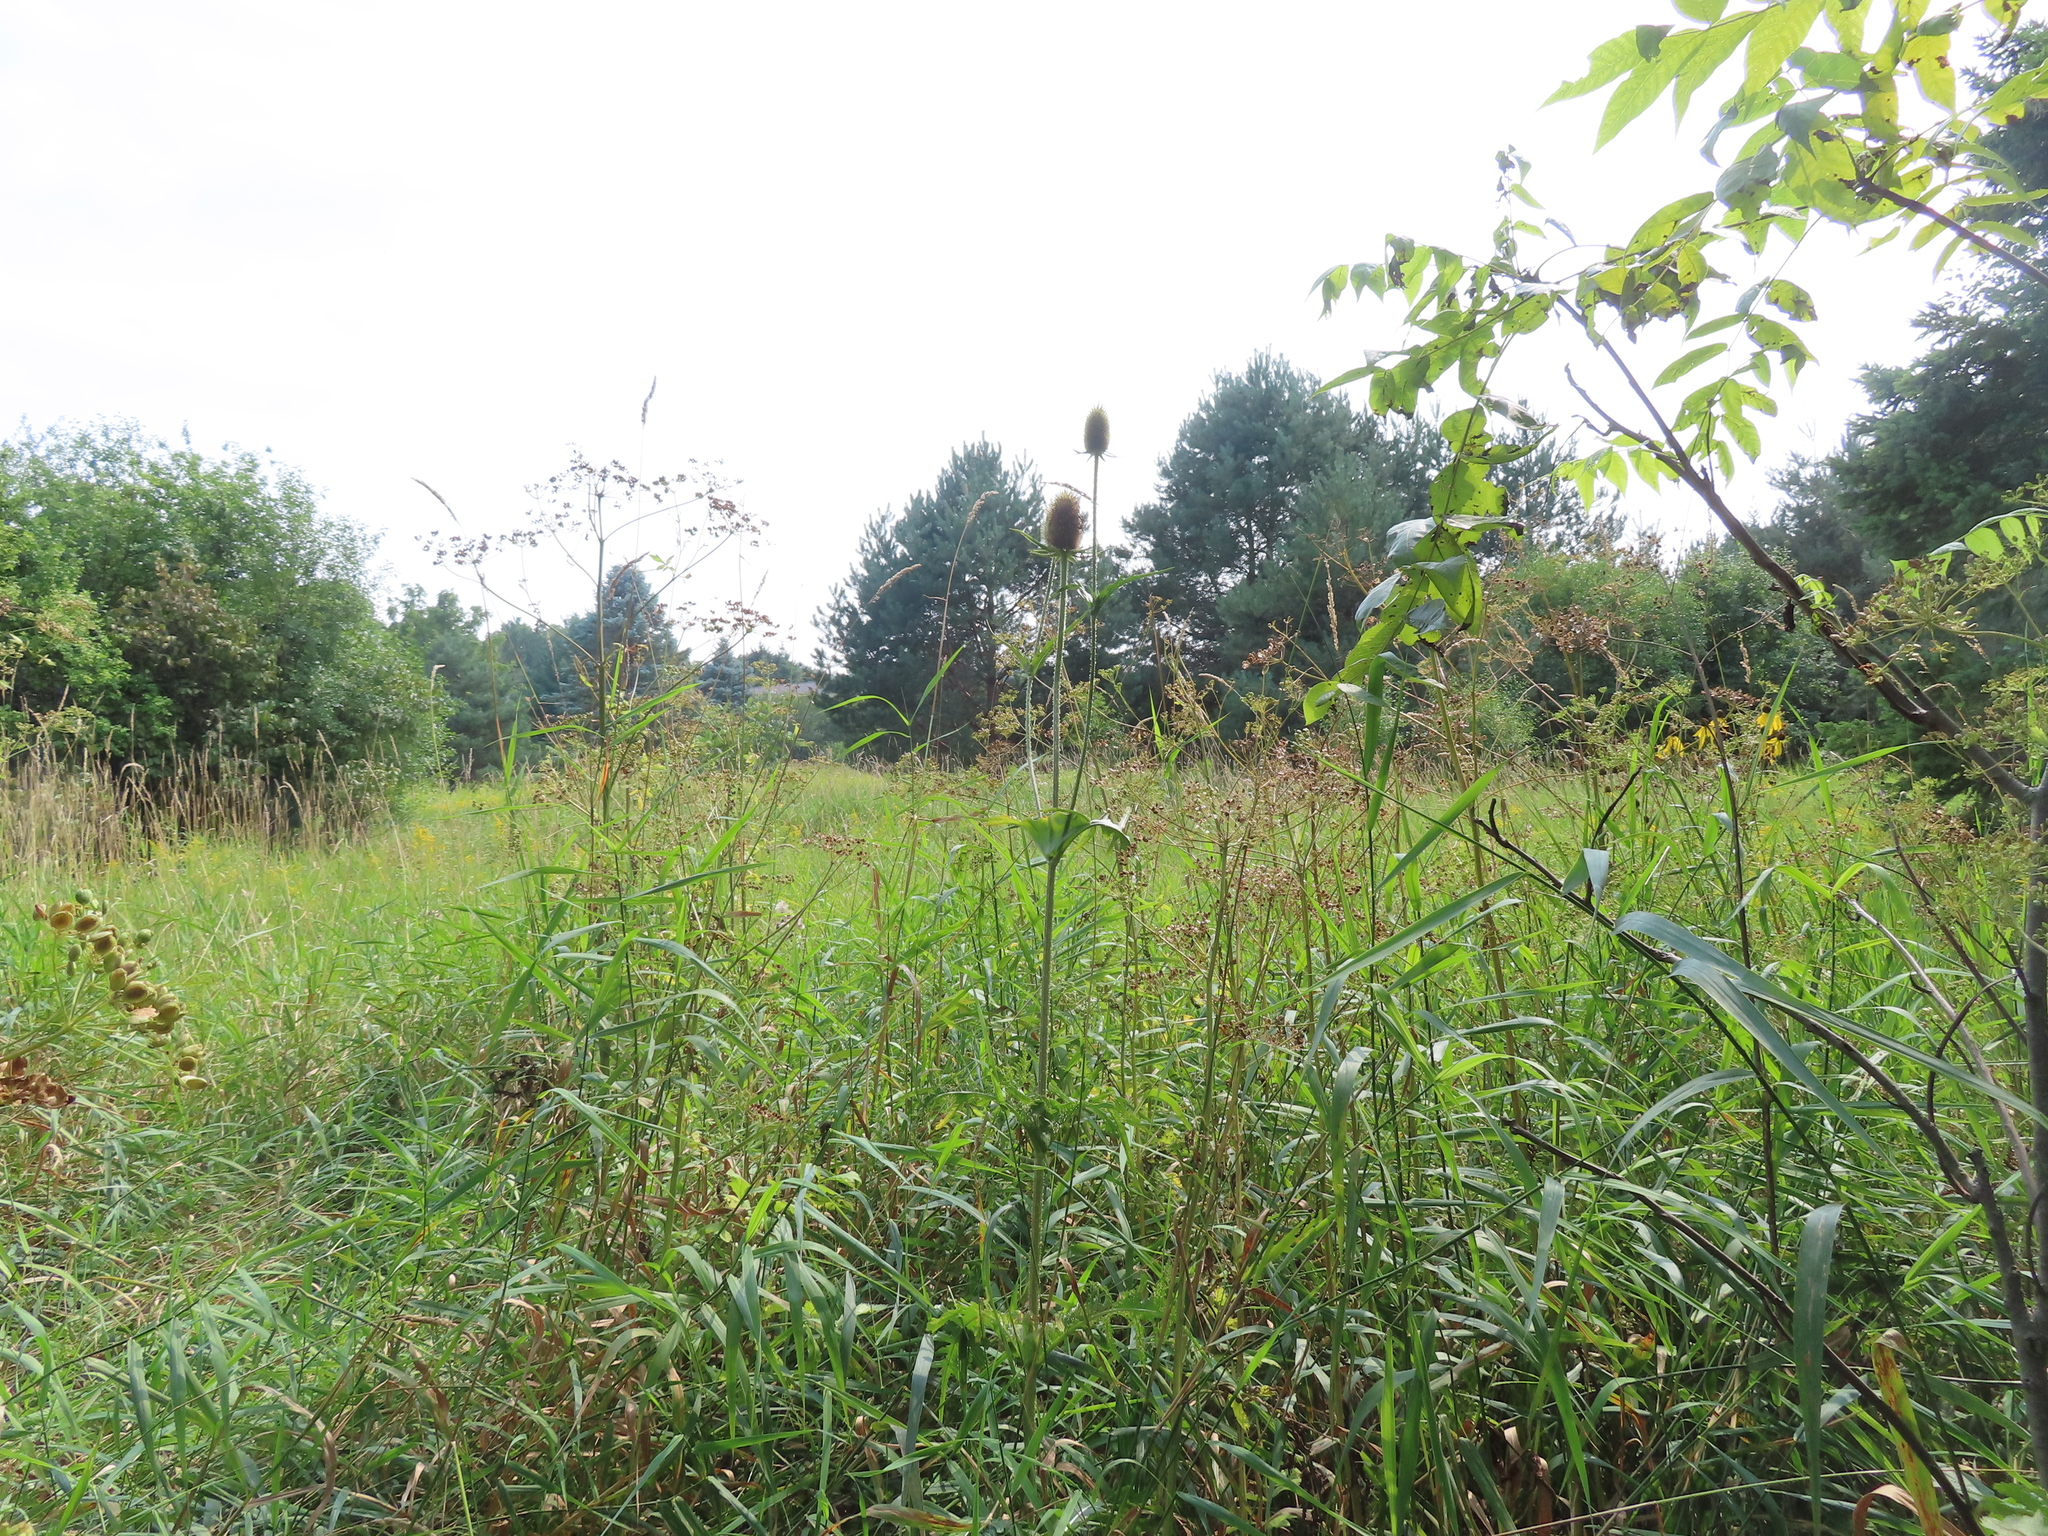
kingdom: Plantae
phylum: Tracheophyta
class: Magnoliopsida
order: Dipsacales
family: Caprifoliaceae
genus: Dipsacus
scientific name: Dipsacus laciniatus
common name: Cut-leaved teasel
